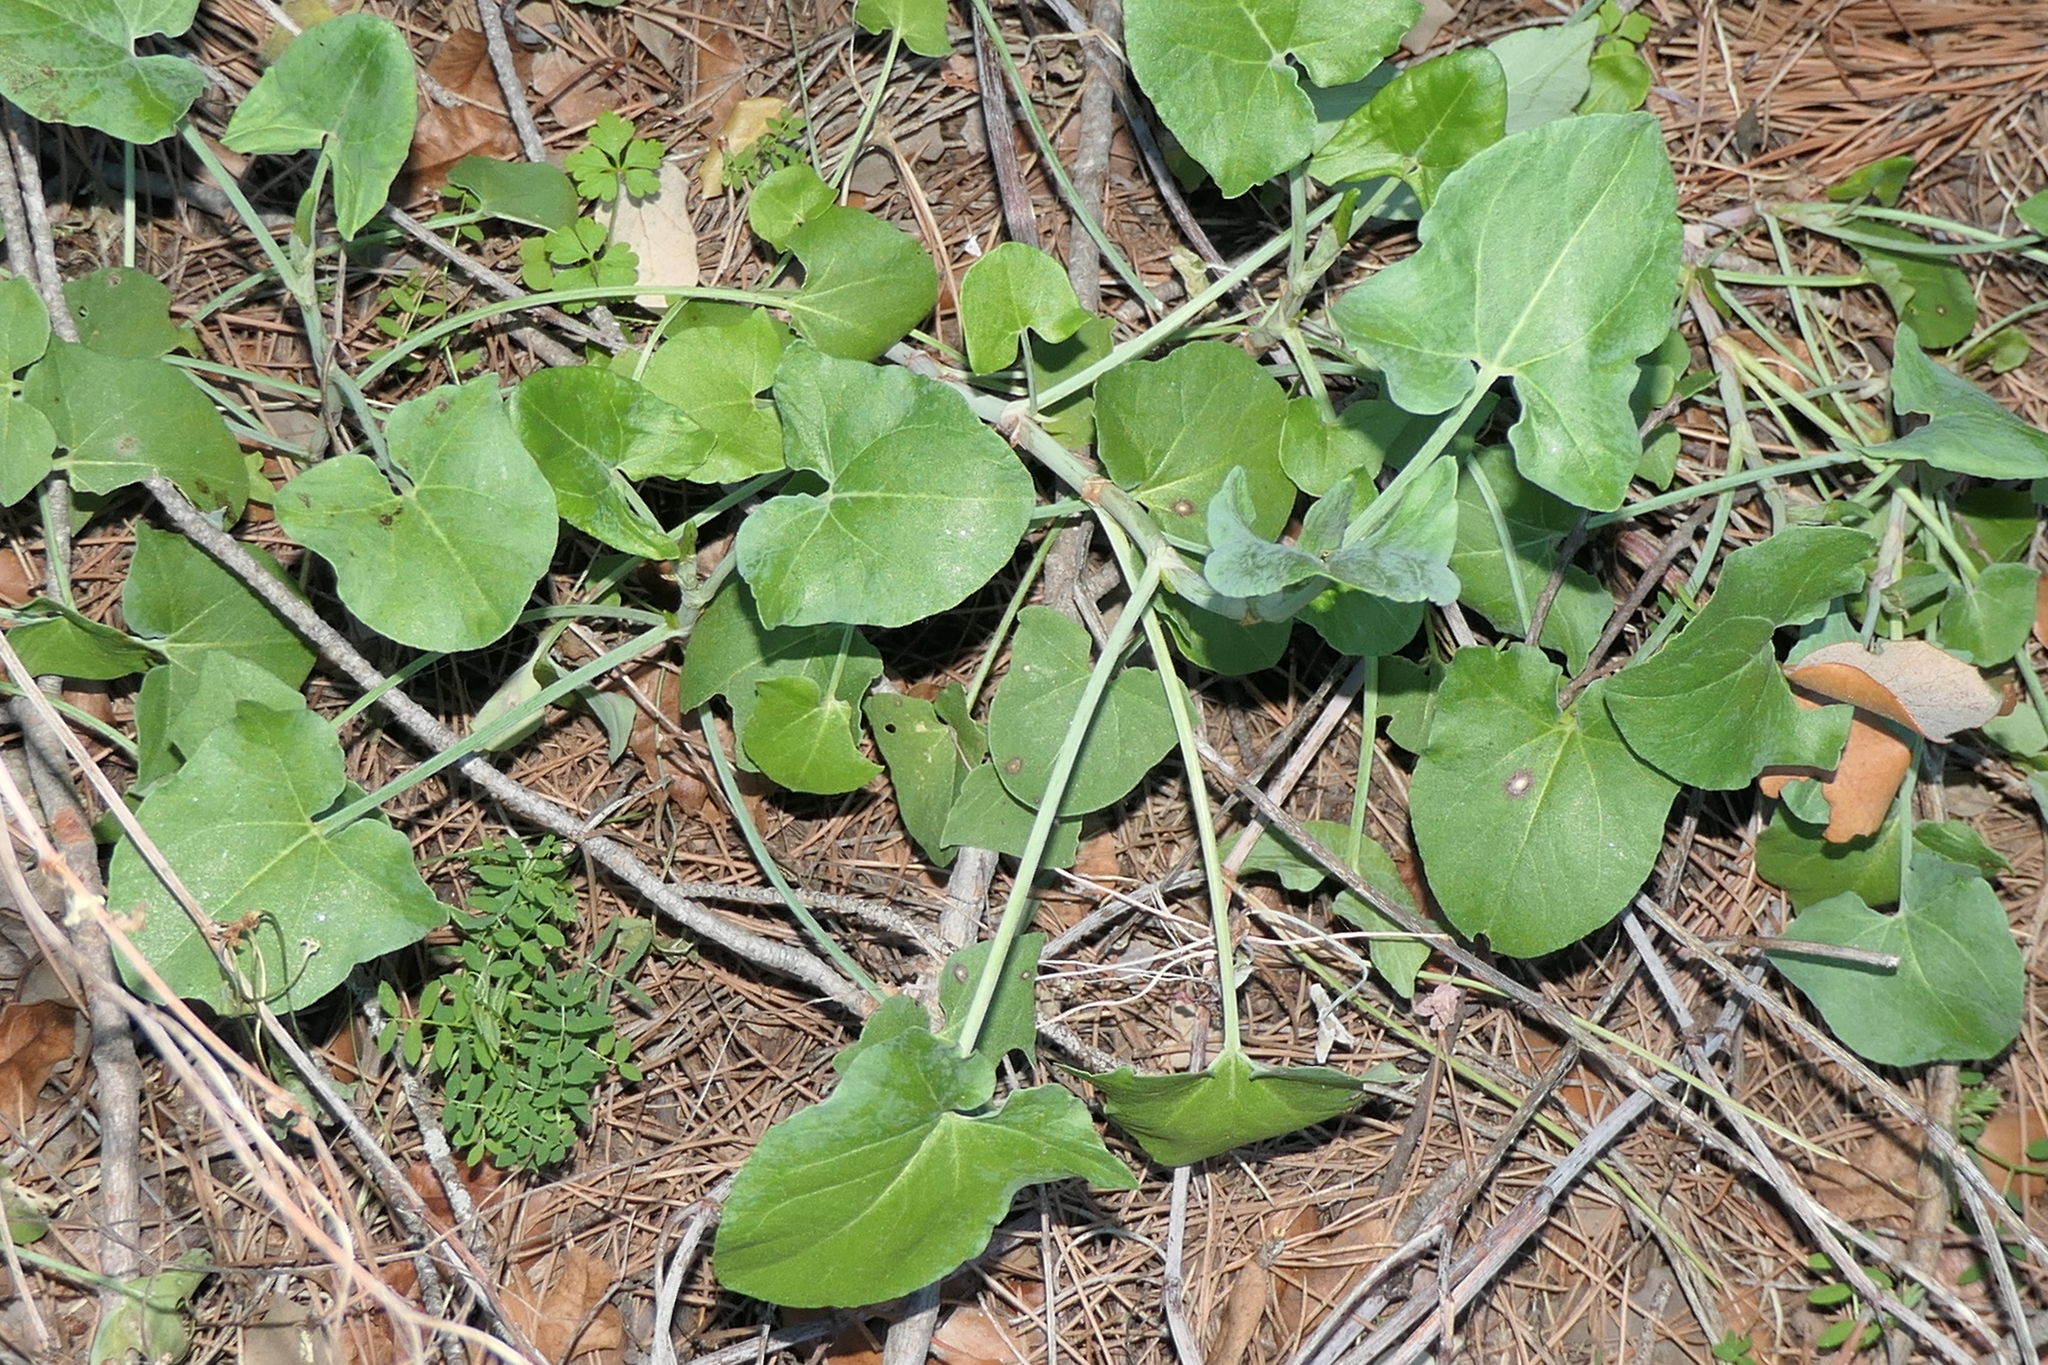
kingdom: Plantae
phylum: Tracheophyta
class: Magnoliopsida
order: Caryophyllales
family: Polygonaceae
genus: Rumex
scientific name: Rumex induratus
